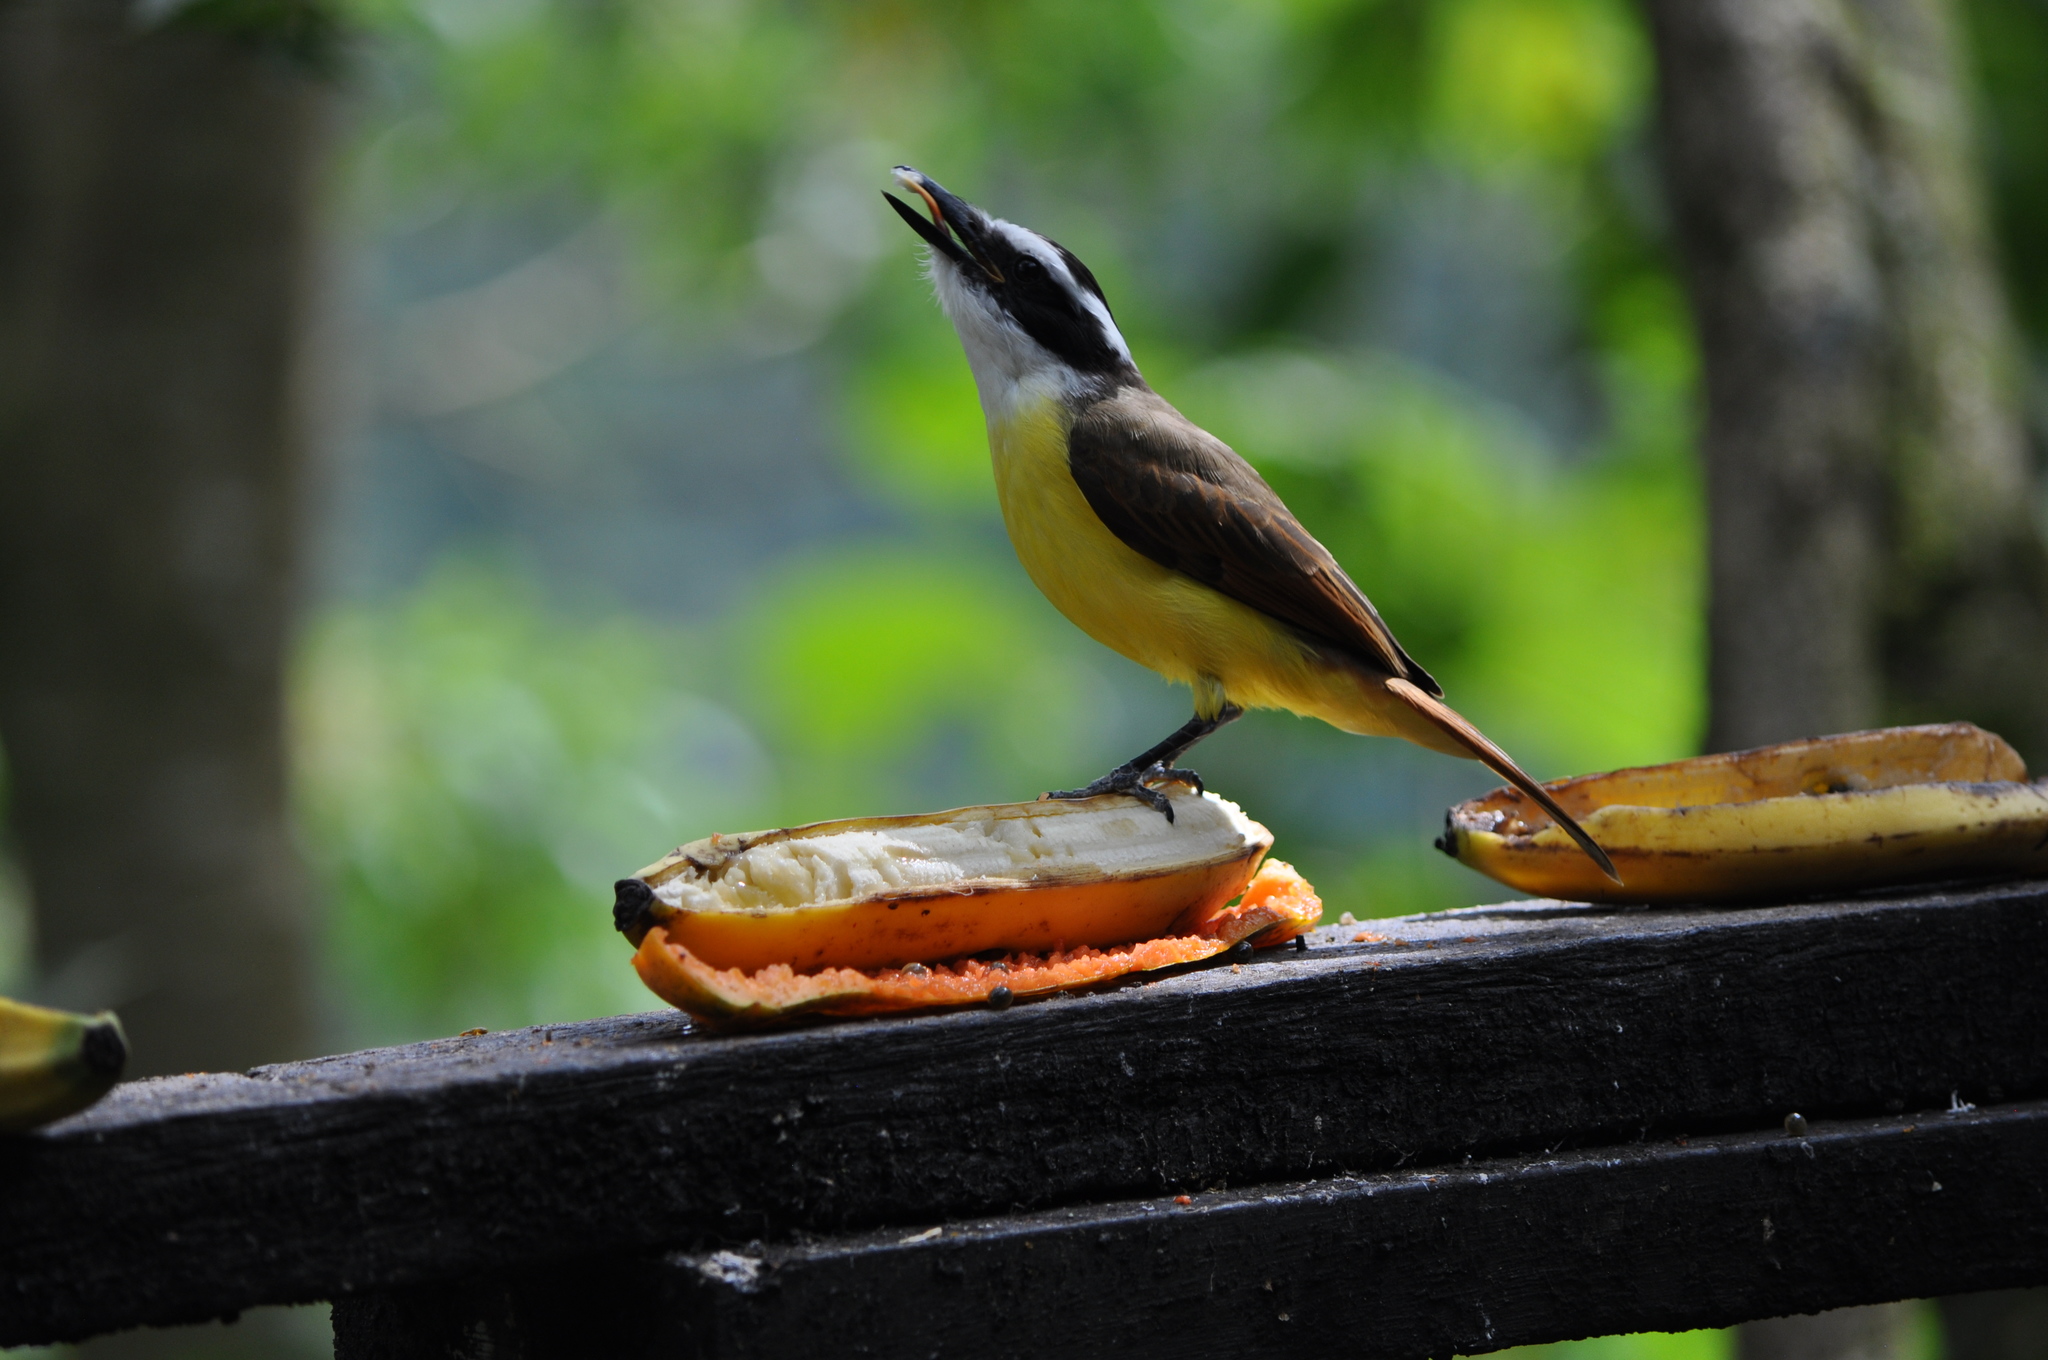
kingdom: Animalia
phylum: Chordata
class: Aves
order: Passeriformes
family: Tyrannidae
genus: Pitangus
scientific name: Pitangus sulphuratus
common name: Great kiskadee
